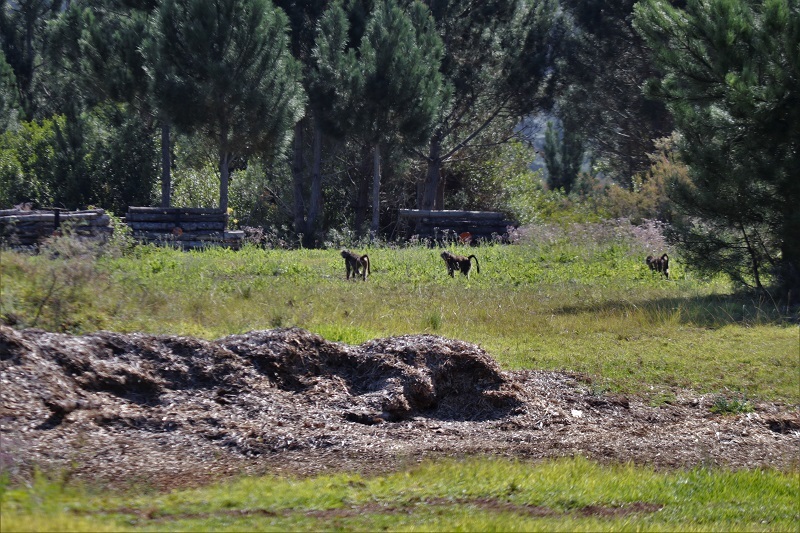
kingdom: Animalia
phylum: Chordata
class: Mammalia
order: Primates
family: Cercopithecidae
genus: Papio
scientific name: Papio ursinus
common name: Chacma baboon
